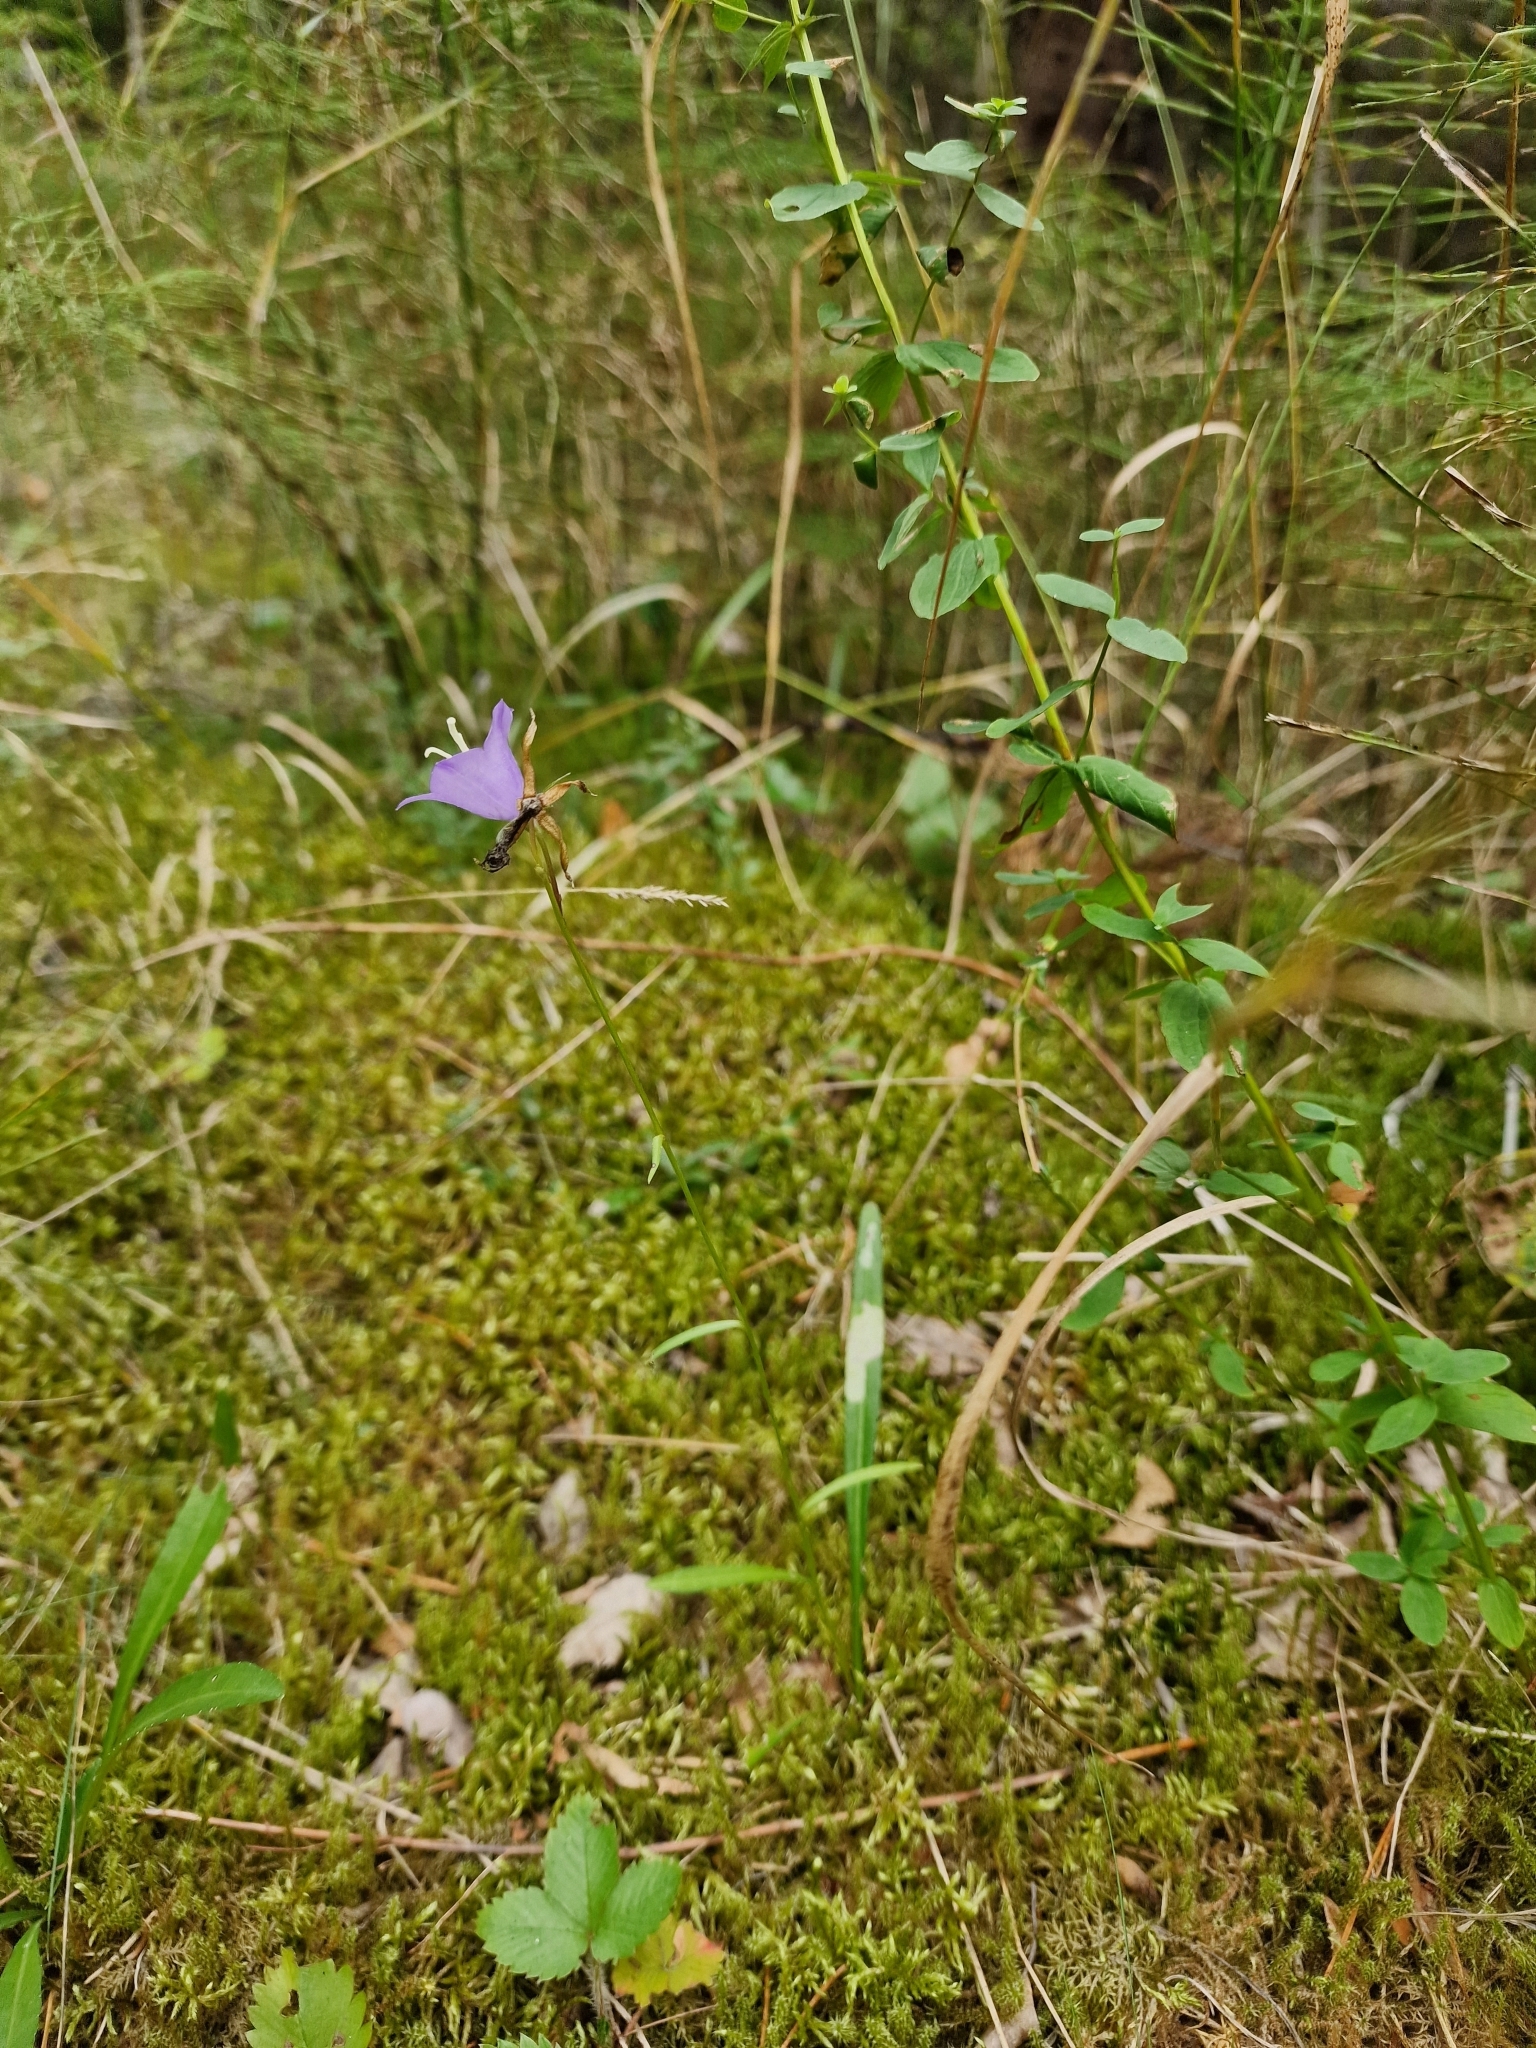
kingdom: Plantae
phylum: Tracheophyta
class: Magnoliopsida
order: Asterales
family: Campanulaceae
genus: Campanula
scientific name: Campanula persicifolia
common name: Peach-leaved bellflower
